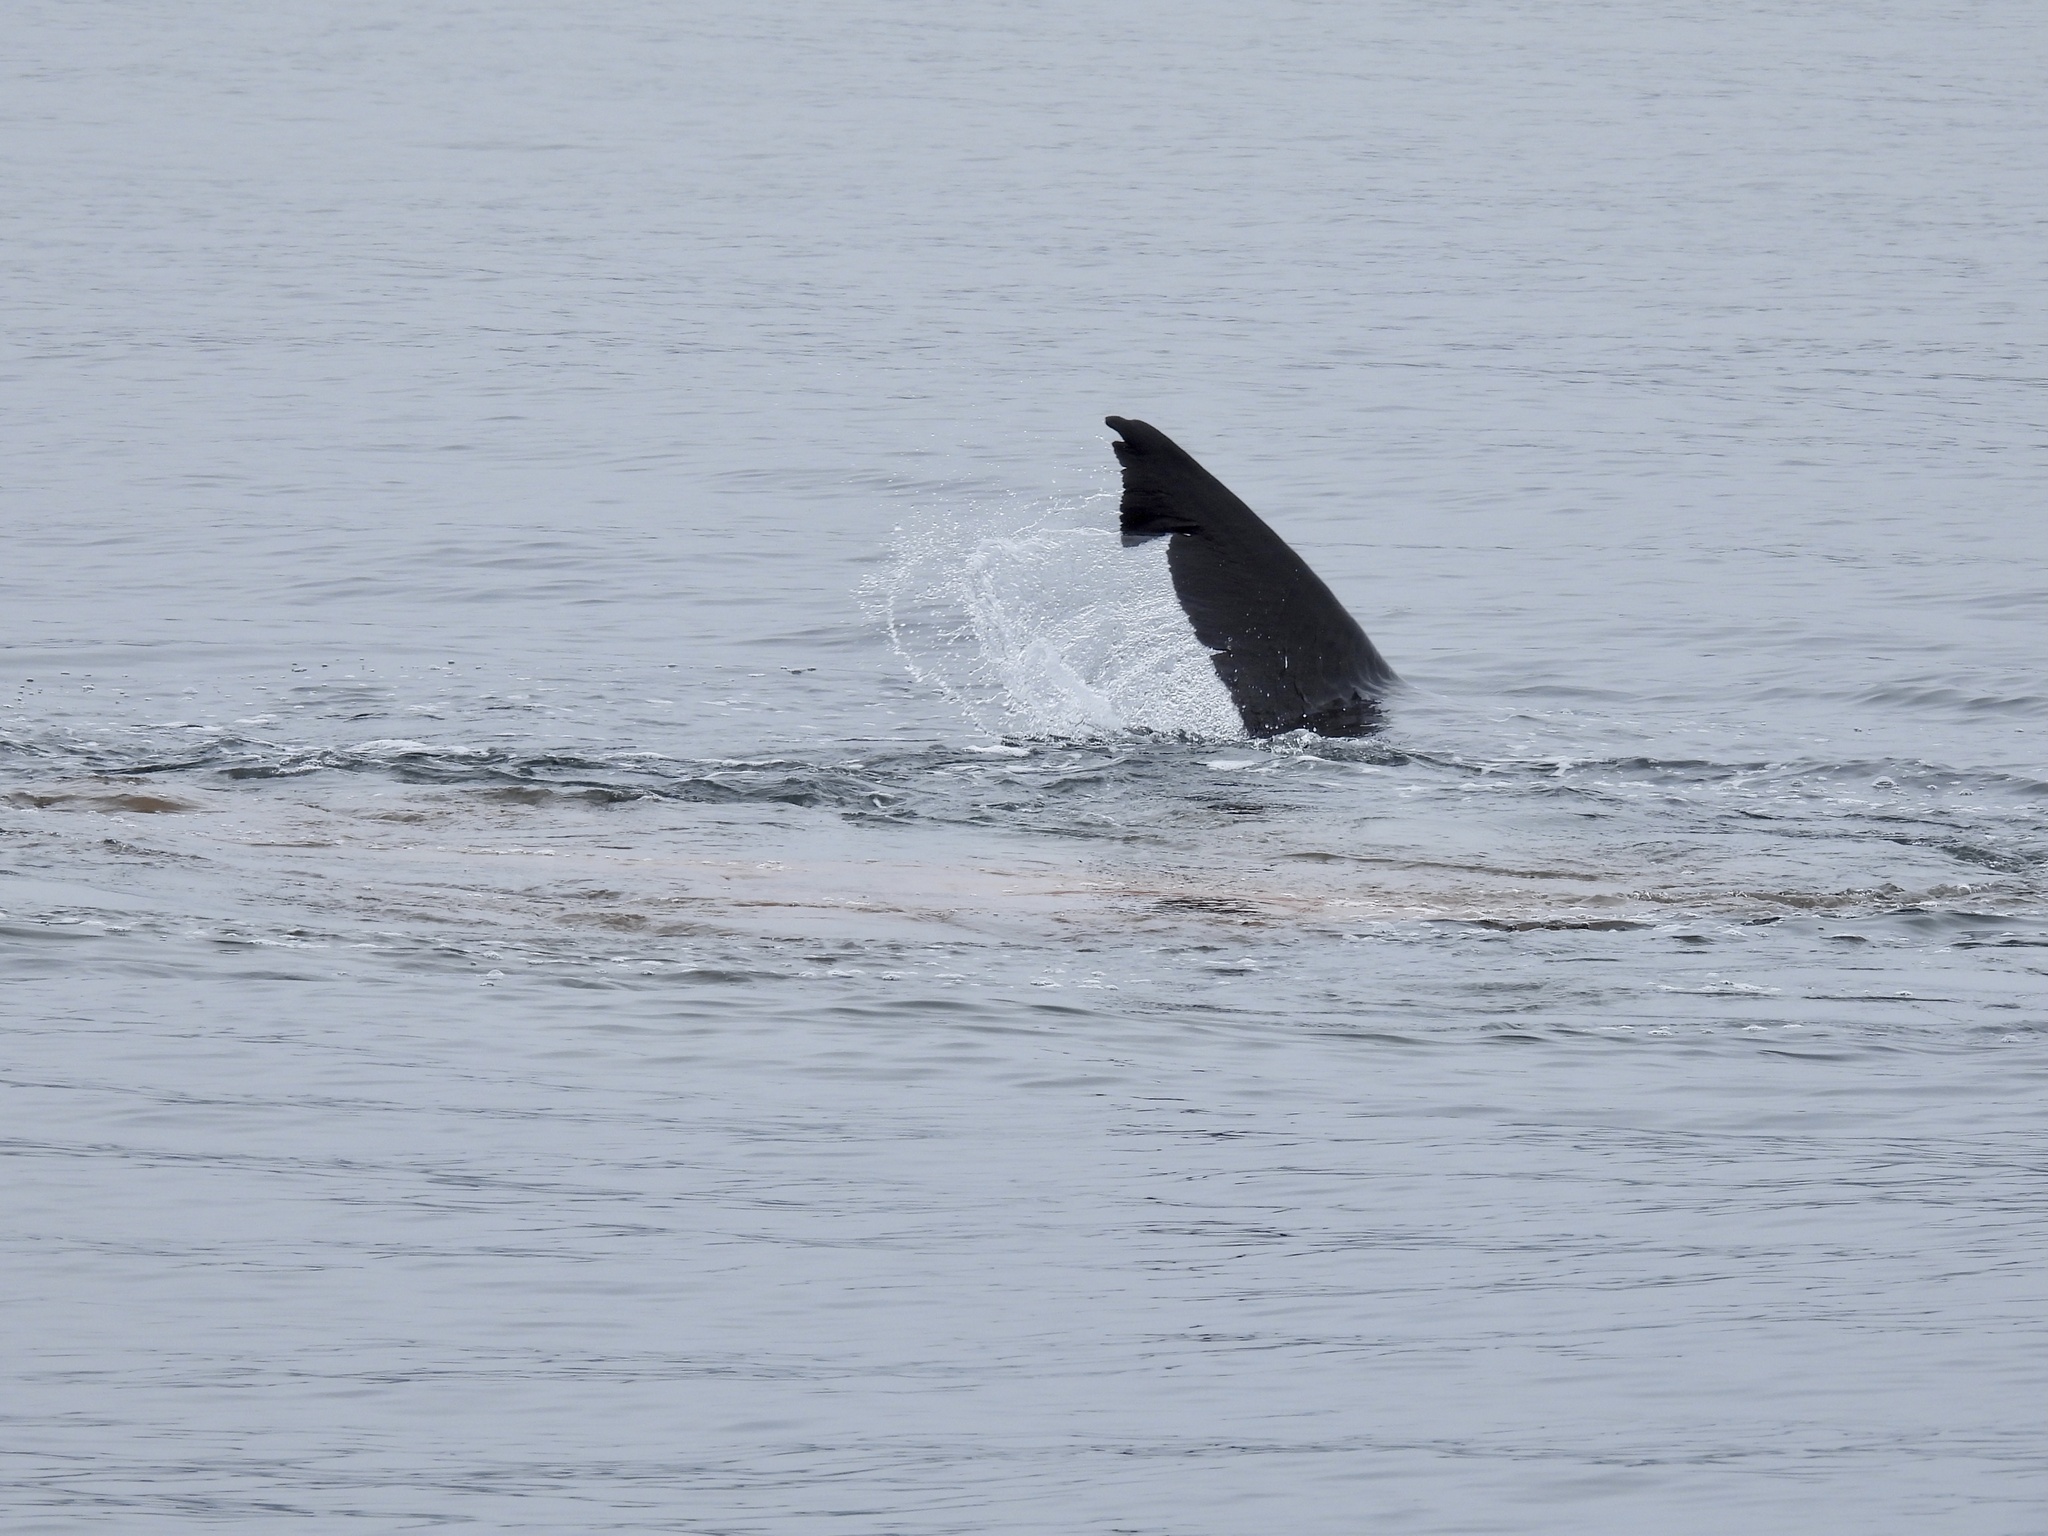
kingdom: Animalia
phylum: Chordata
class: Elasmobranchii
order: Lamniformes
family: Cetorhinidae
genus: Cetorhinus
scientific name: Cetorhinus maximus
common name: Basking shark
